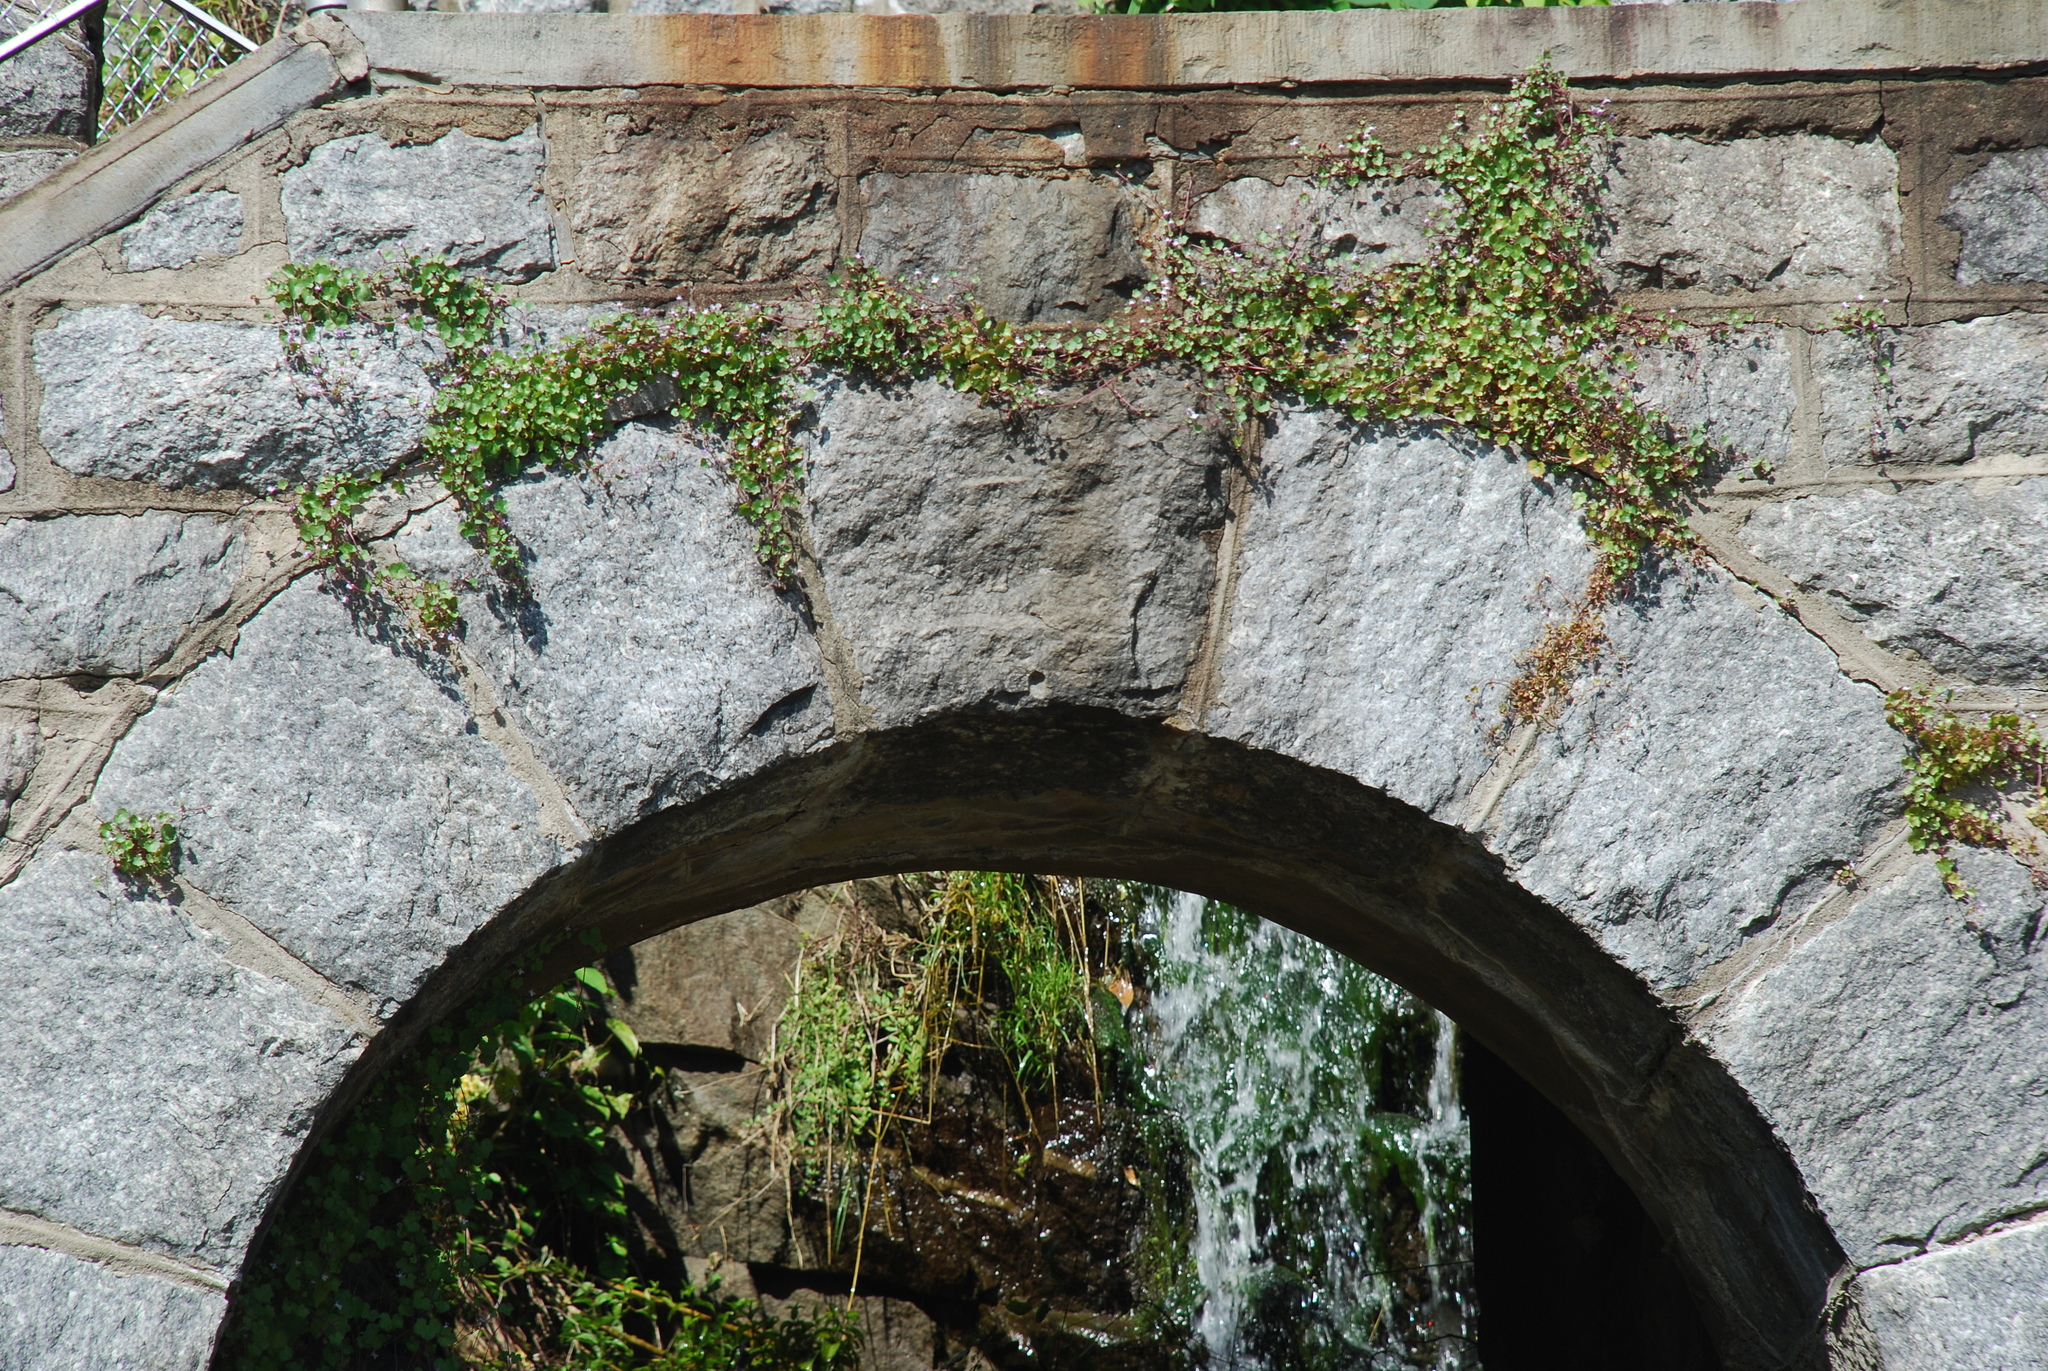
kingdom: Plantae
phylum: Tracheophyta
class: Magnoliopsida
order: Lamiales
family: Plantaginaceae
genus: Cymbalaria
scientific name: Cymbalaria muralis
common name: Ivy-leaved toadflax
